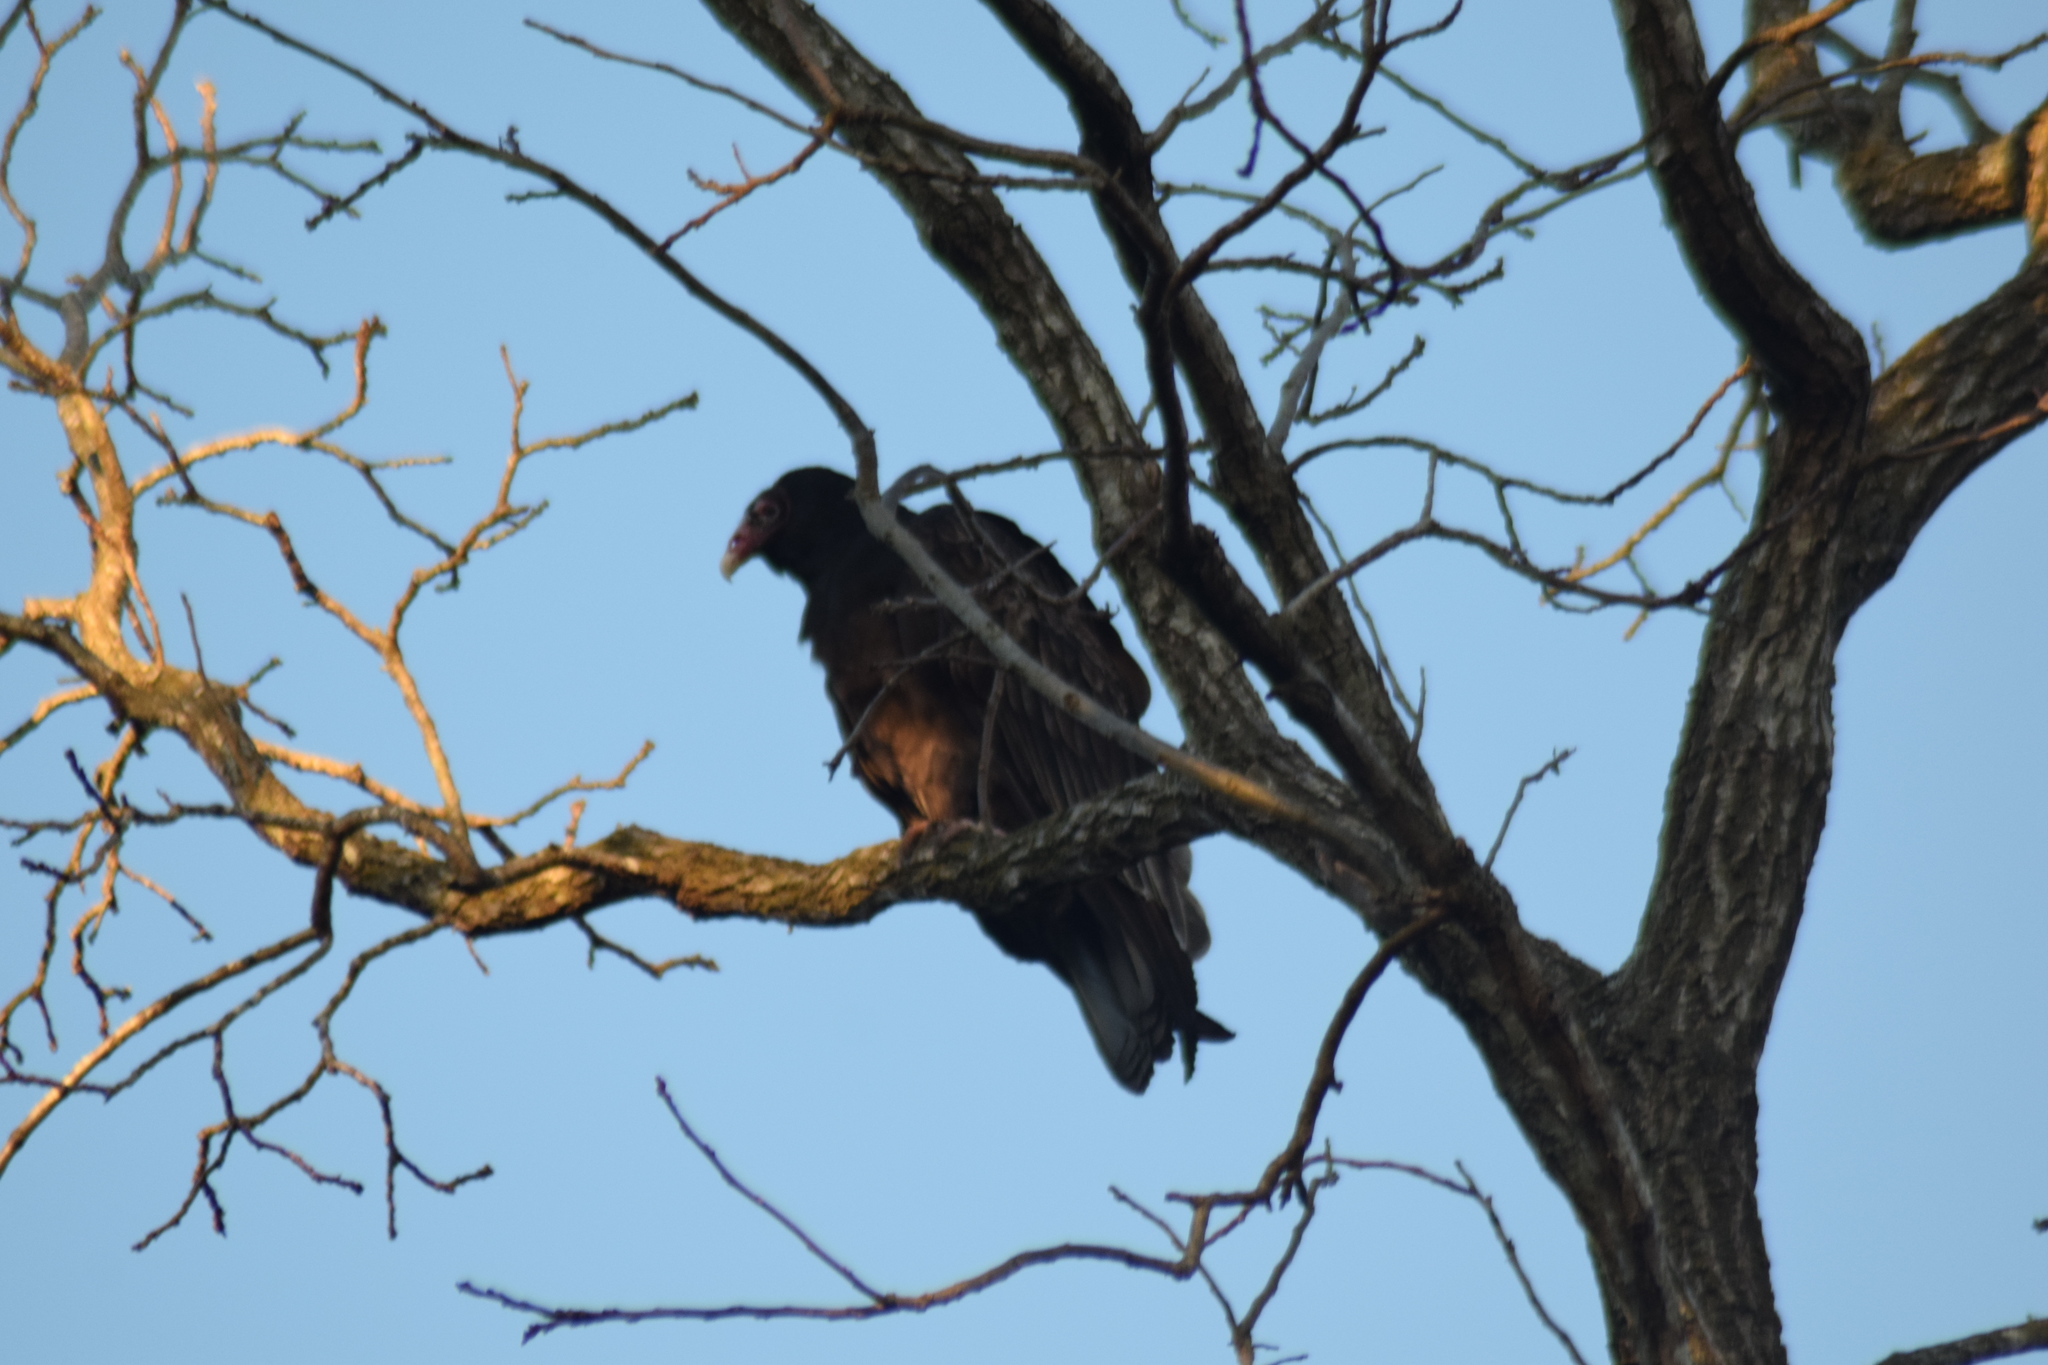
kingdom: Animalia
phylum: Chordata
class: Aves
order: Accipitriformes
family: Cathartidae
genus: Cathartes
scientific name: Cathartes aura
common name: Turkey vulture
